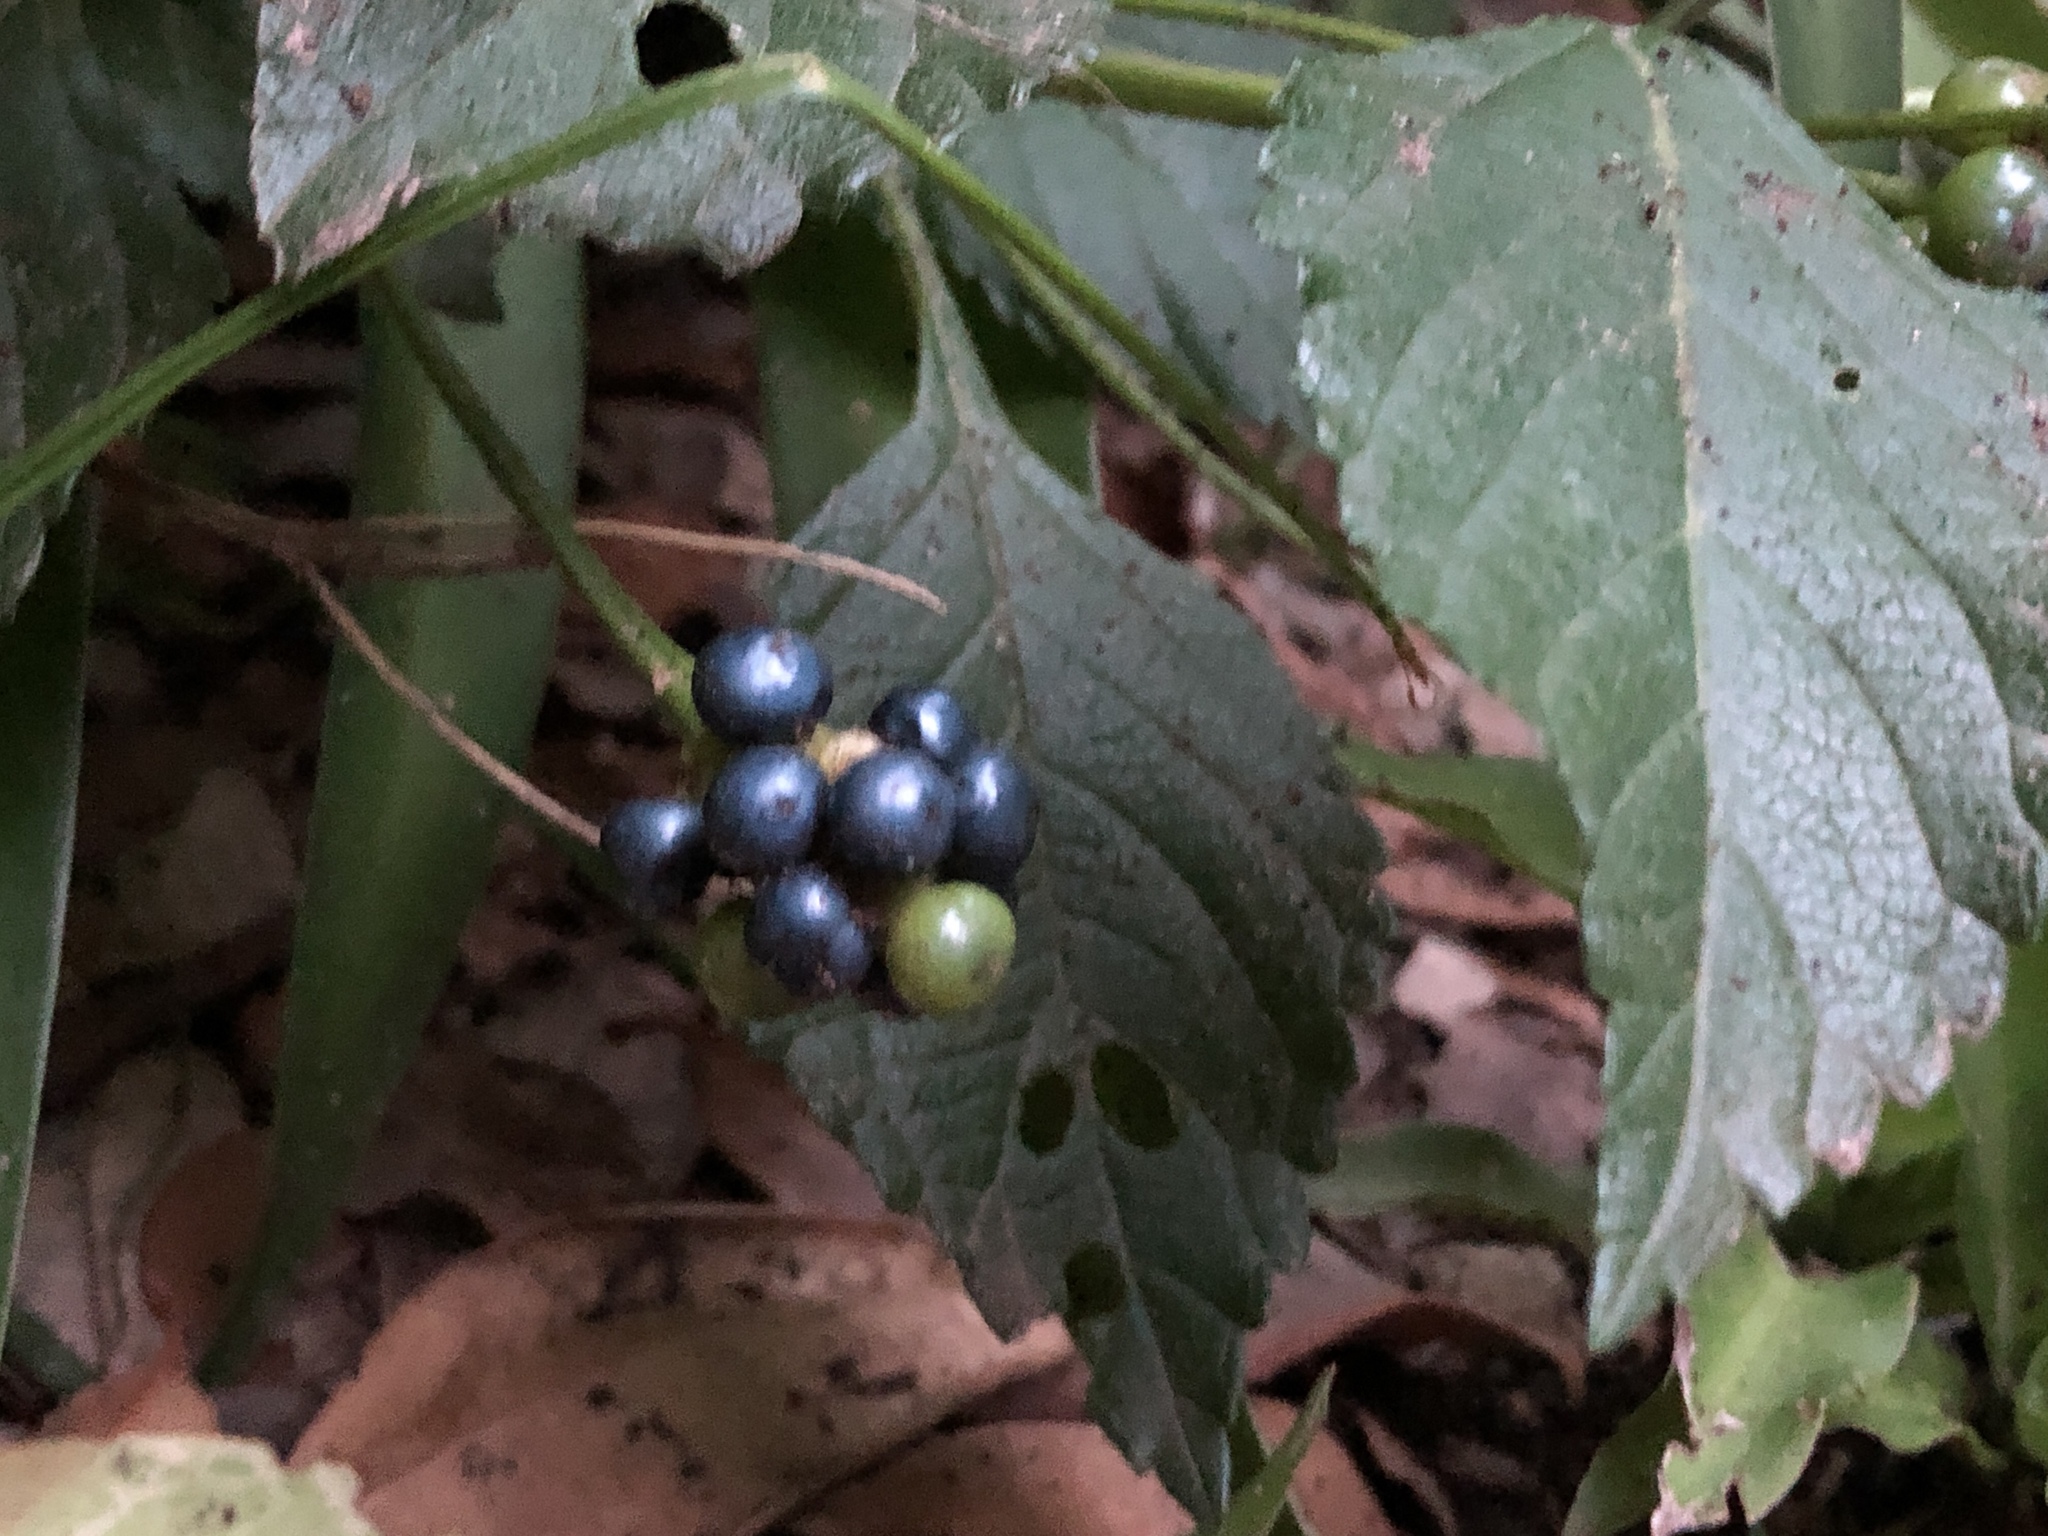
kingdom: Plantae
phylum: Tracheophyta
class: Magnoliopsida
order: Lamiales
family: Verbenaceae
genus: Lantana
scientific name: Lantana strigocamara
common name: Lantana
